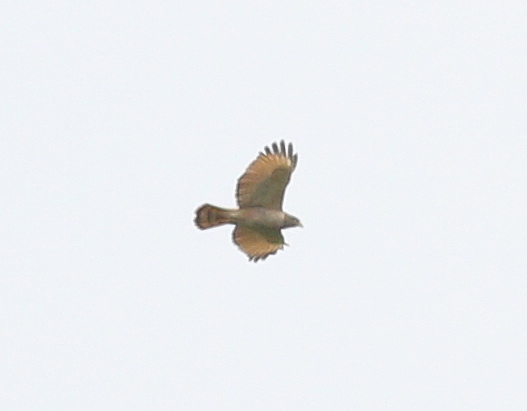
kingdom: Animalia
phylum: Chordata
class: Aves
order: Accipitriformes
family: Accipitridae
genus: Rupornis
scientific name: Rupornis magnirostris
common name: Roadside hawk
